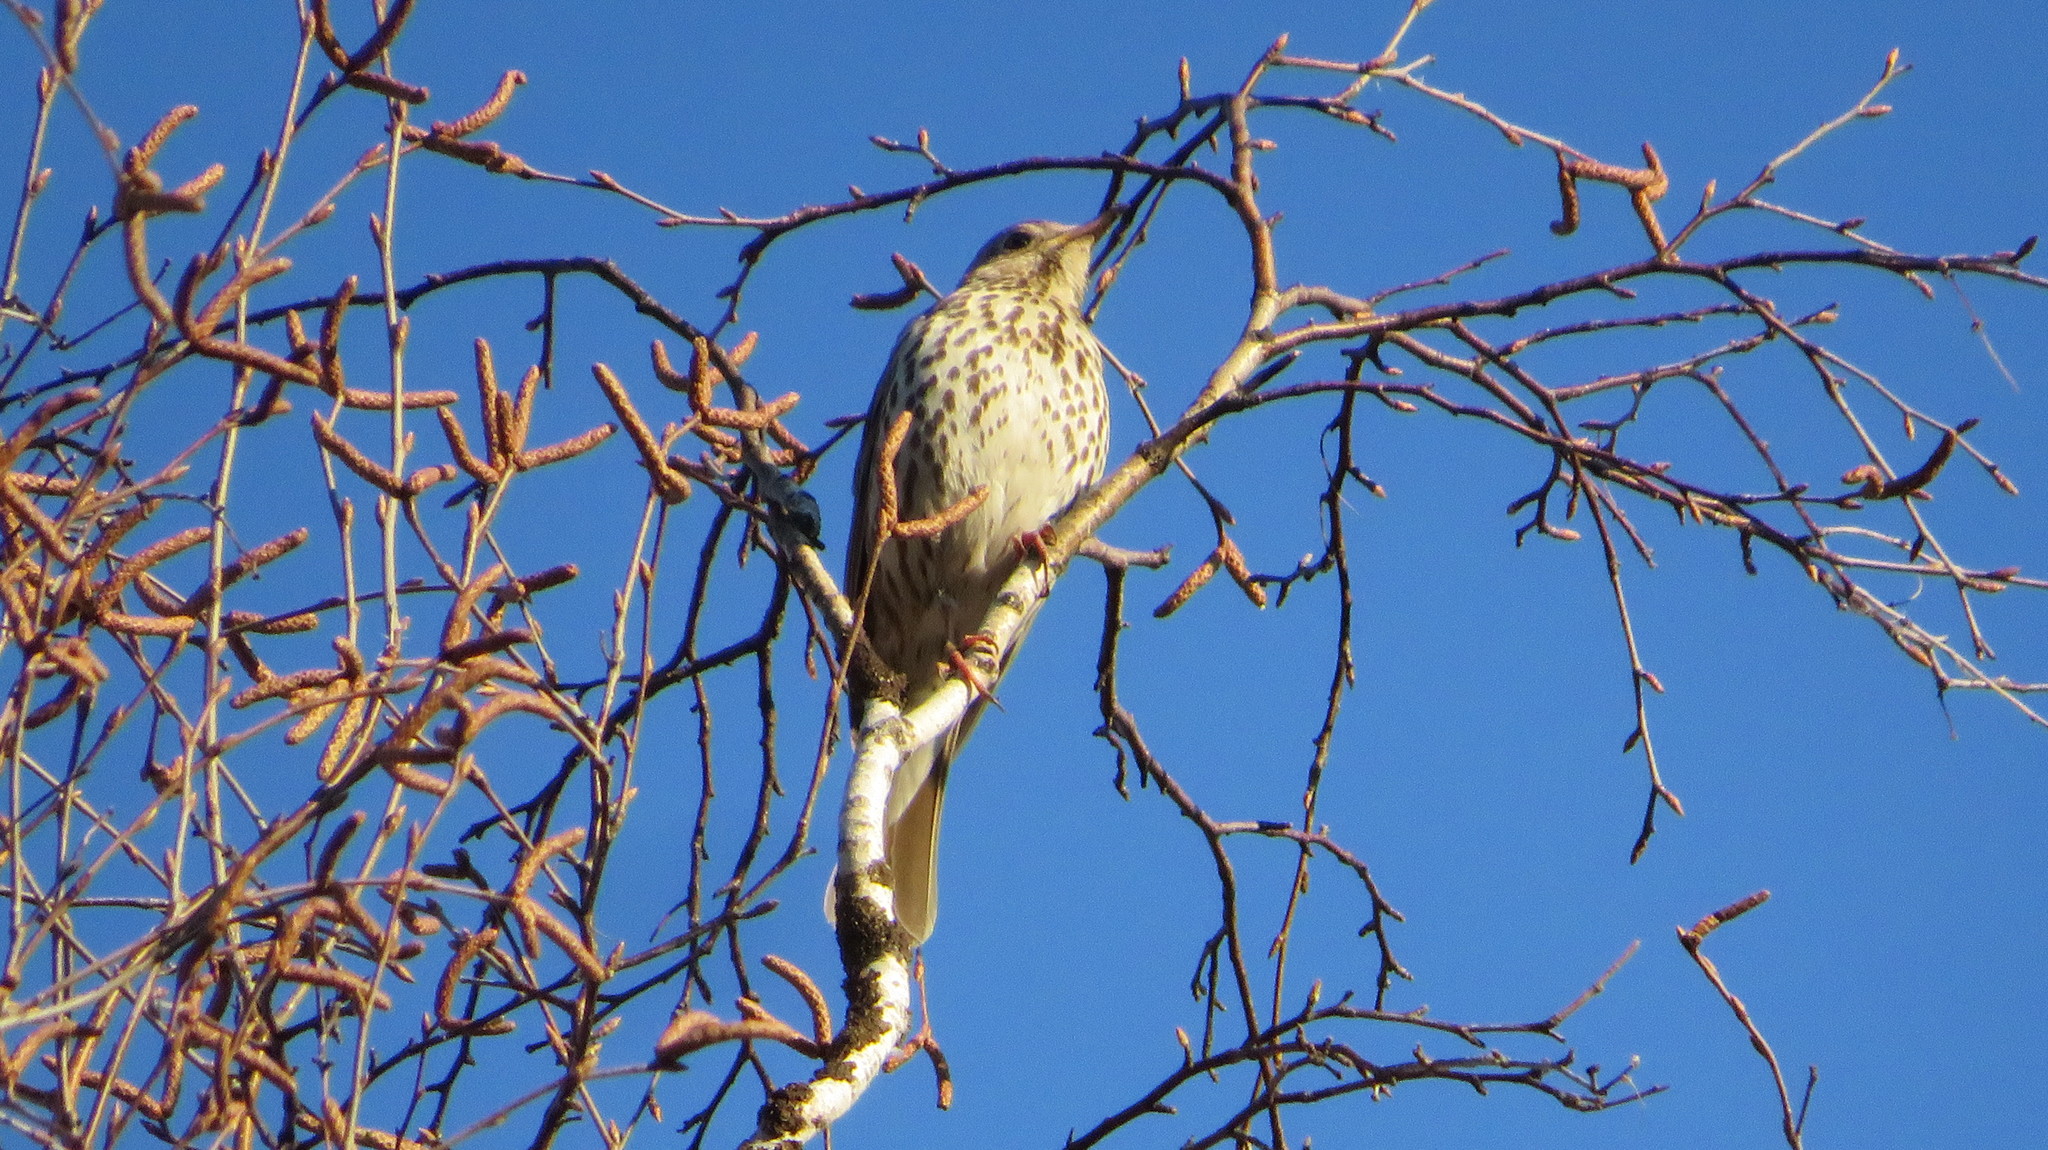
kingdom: Animalia
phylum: Chordata
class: Aves
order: Passeriformes
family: Turdidae
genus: Turdus
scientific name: Turdus philomelos
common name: Song thrush
